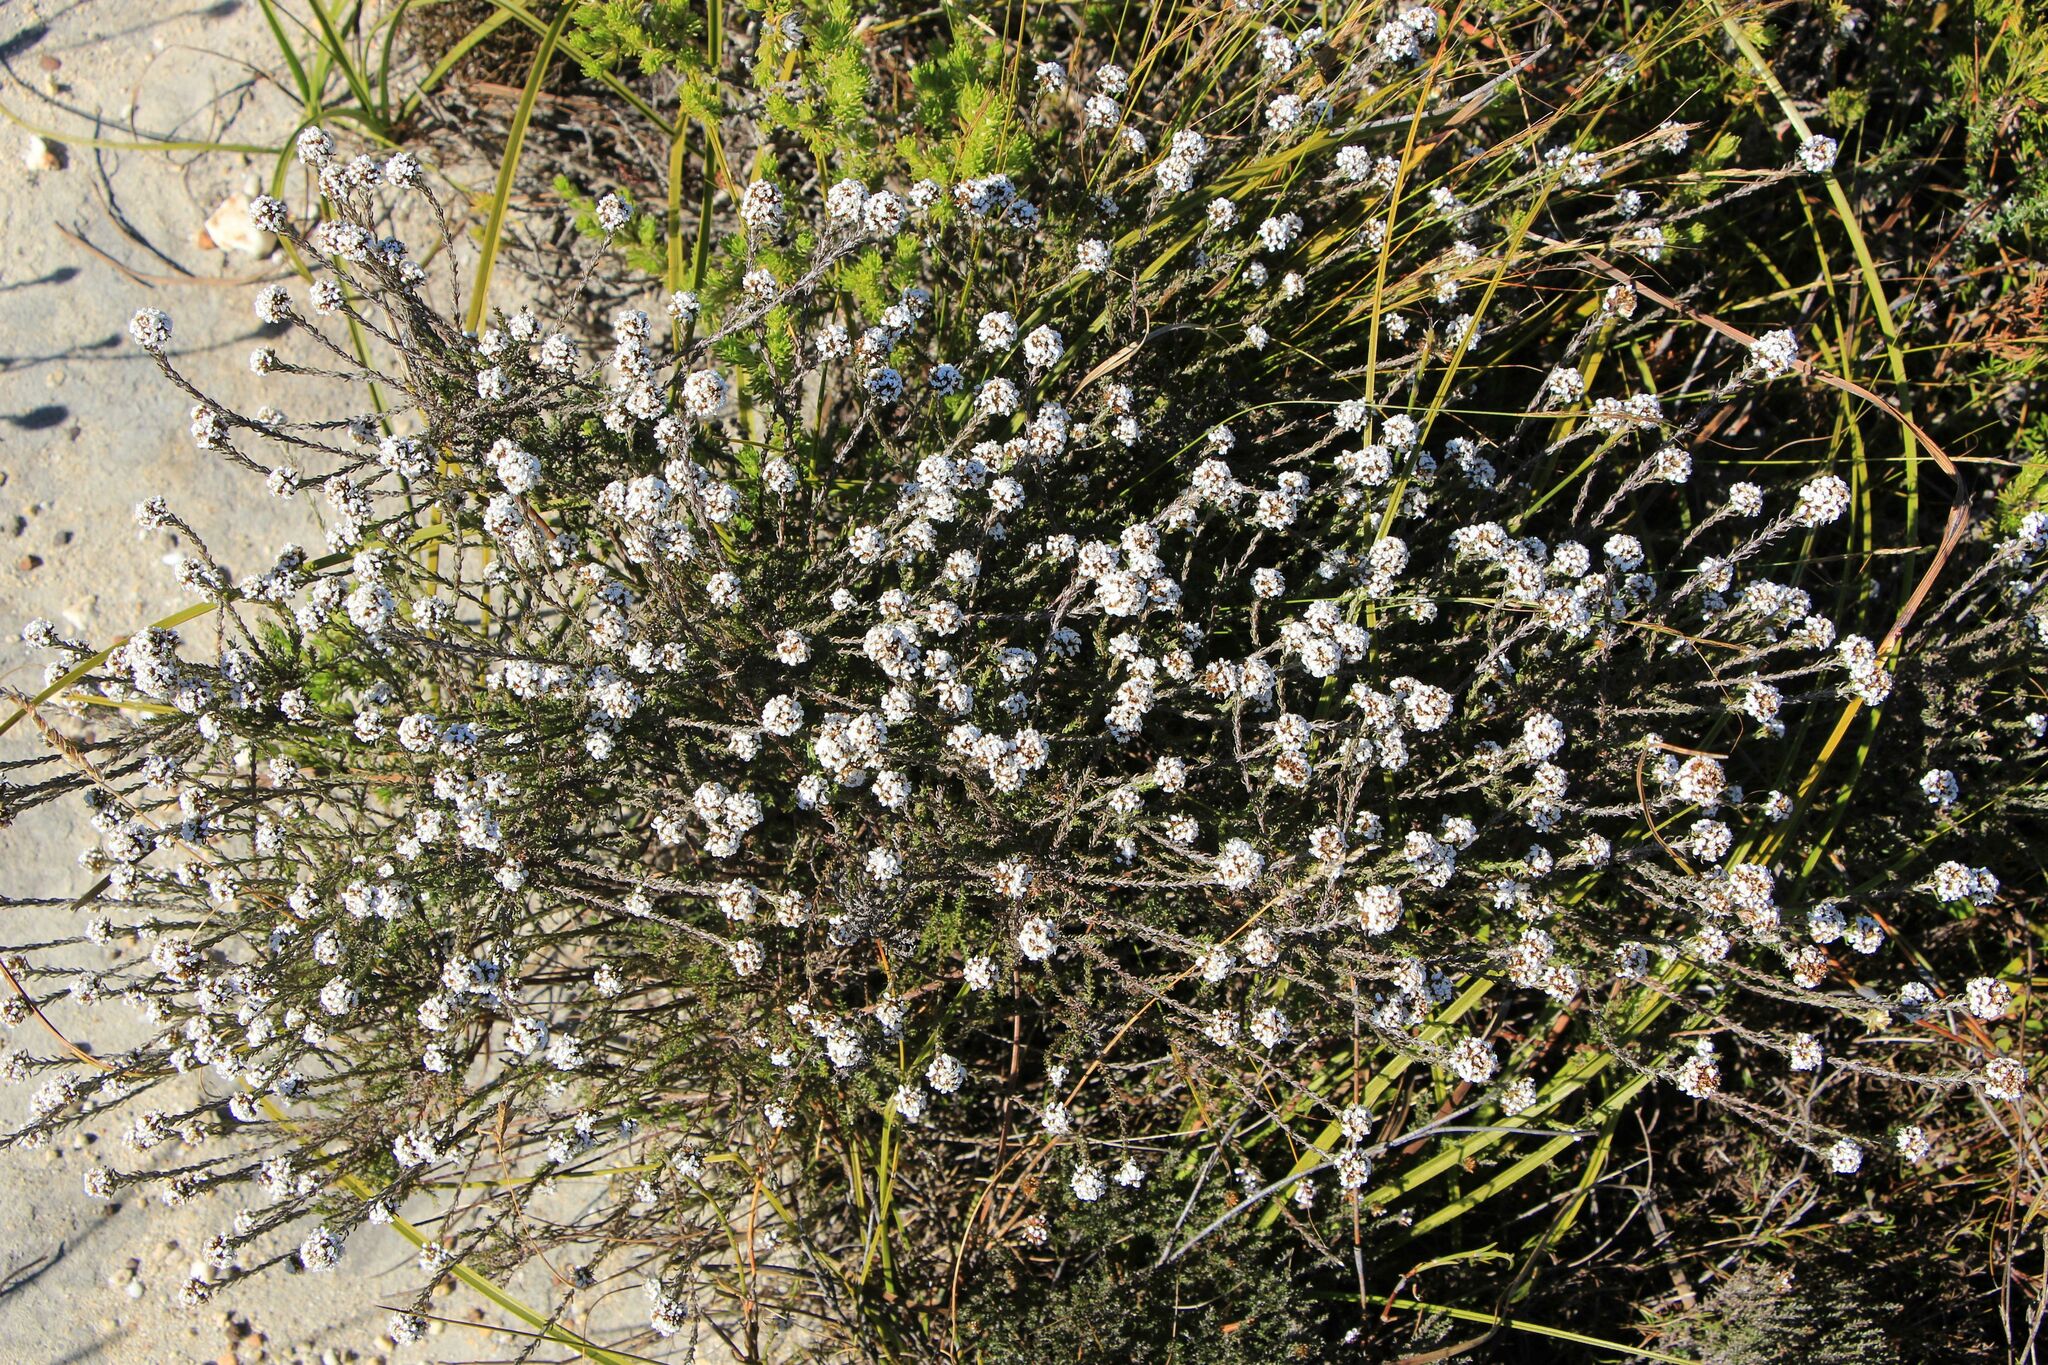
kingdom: Plantae
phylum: Tracheophyta
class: Magnoliopsida
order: Asterales
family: Asteraceae
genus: Disparago
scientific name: Disparago anomala
